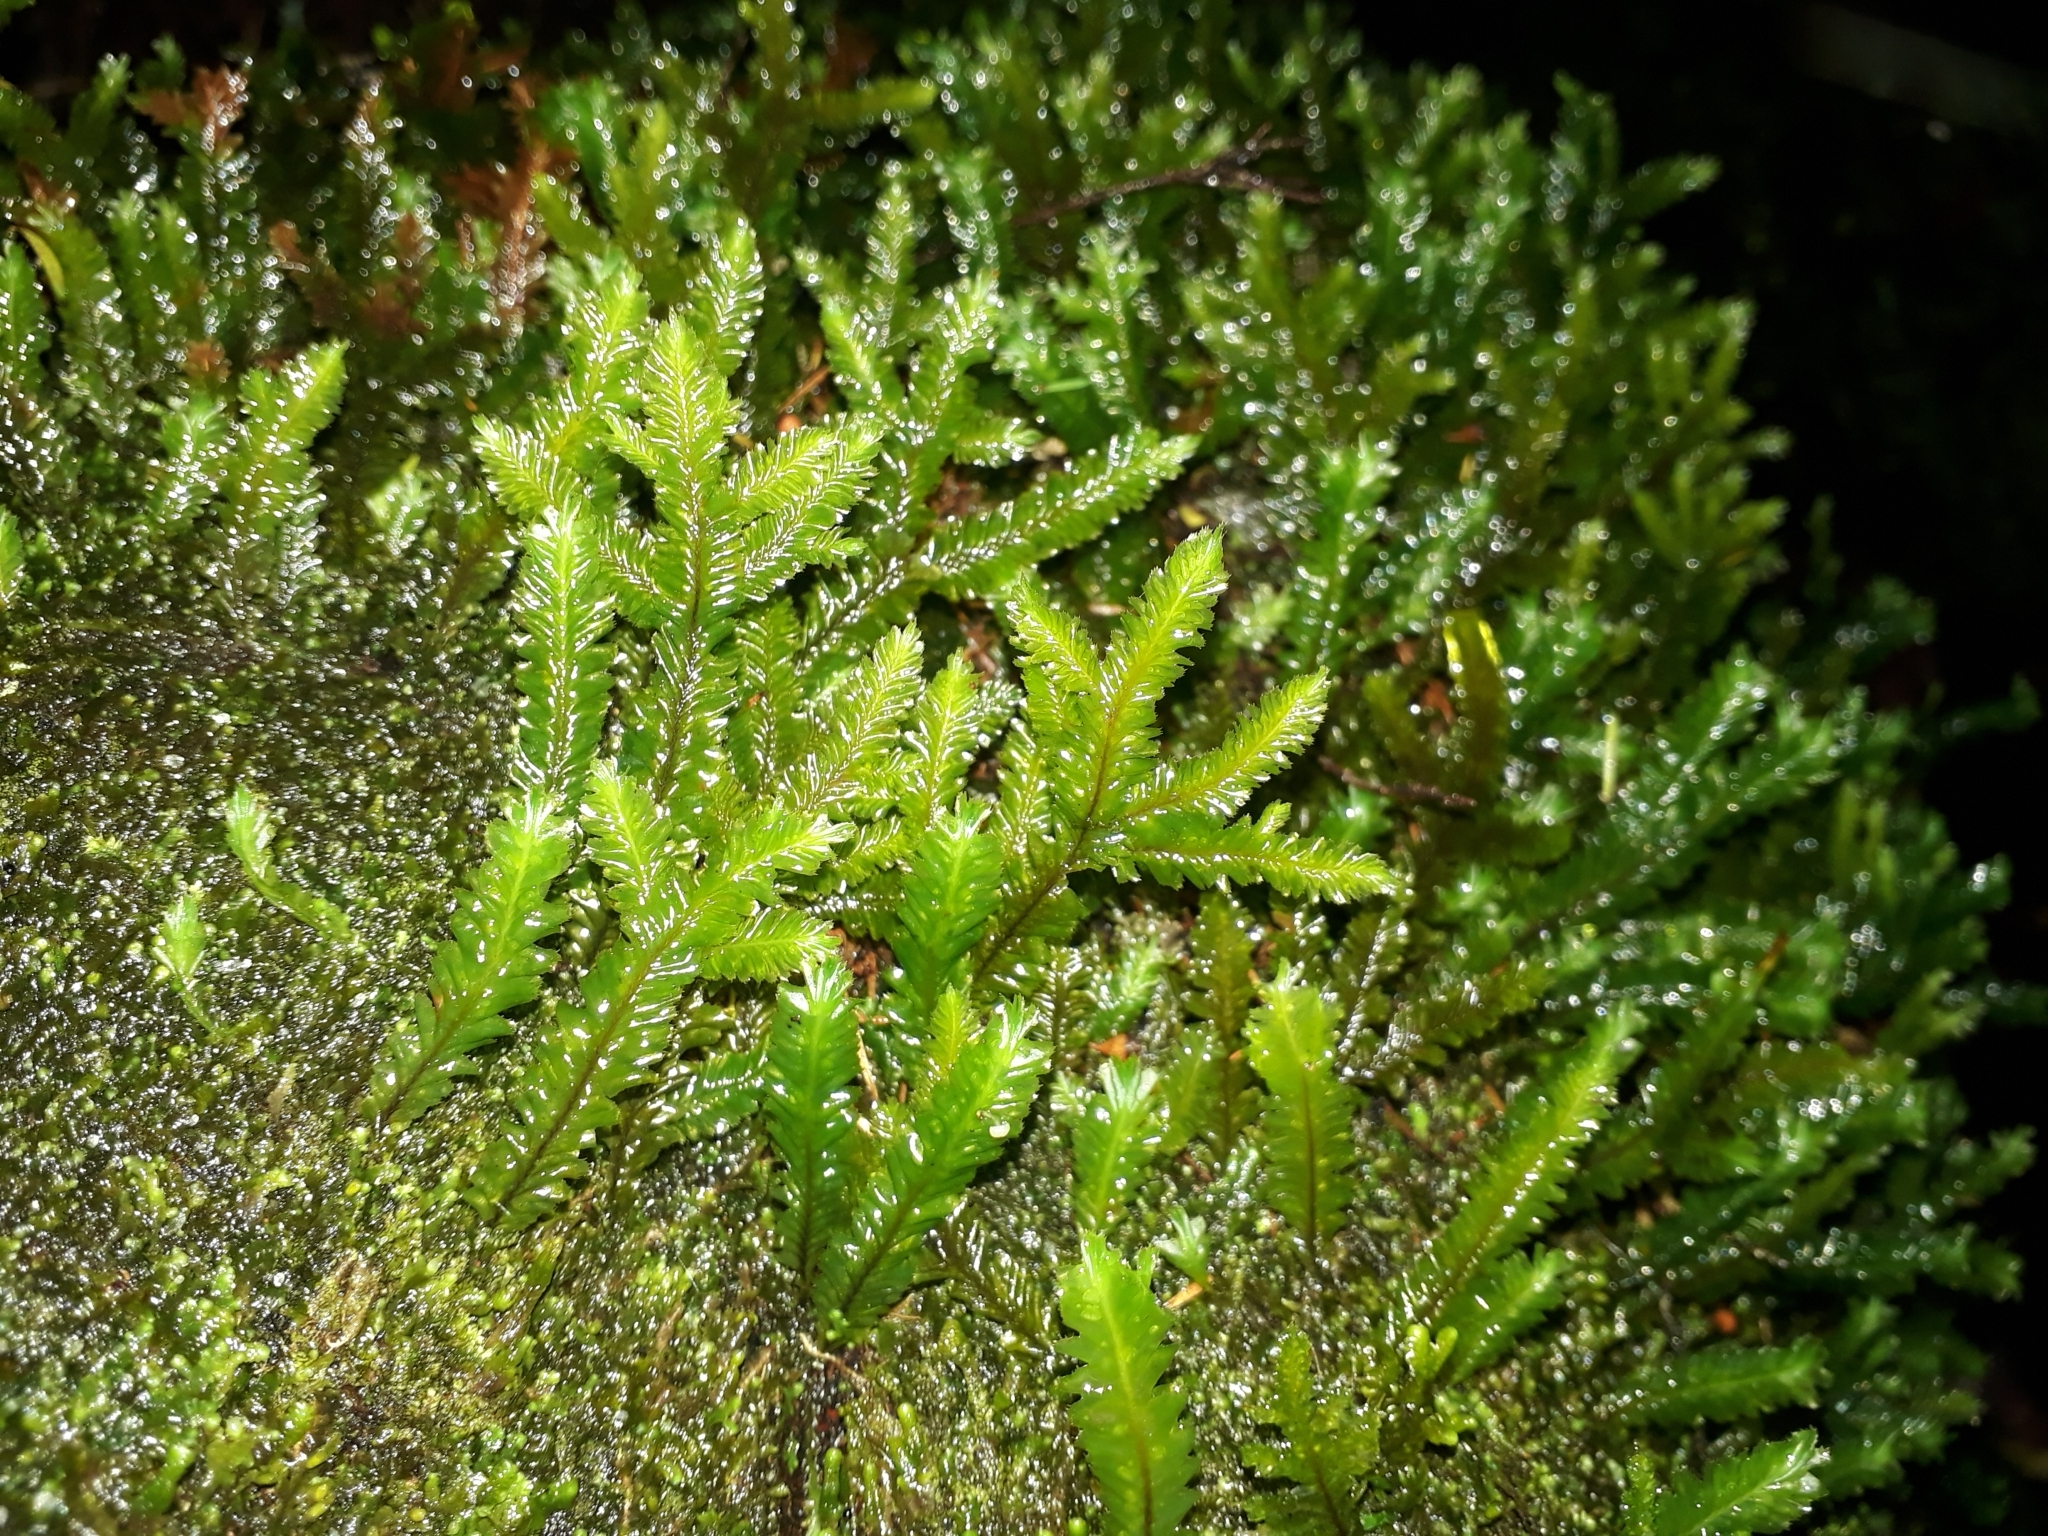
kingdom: Plantae
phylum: Marchantiophyta
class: Jungermanniopsida
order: Jungermanniales
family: Plagiochilaceae
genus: Plagiochila
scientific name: Plagiochila arbuscula
